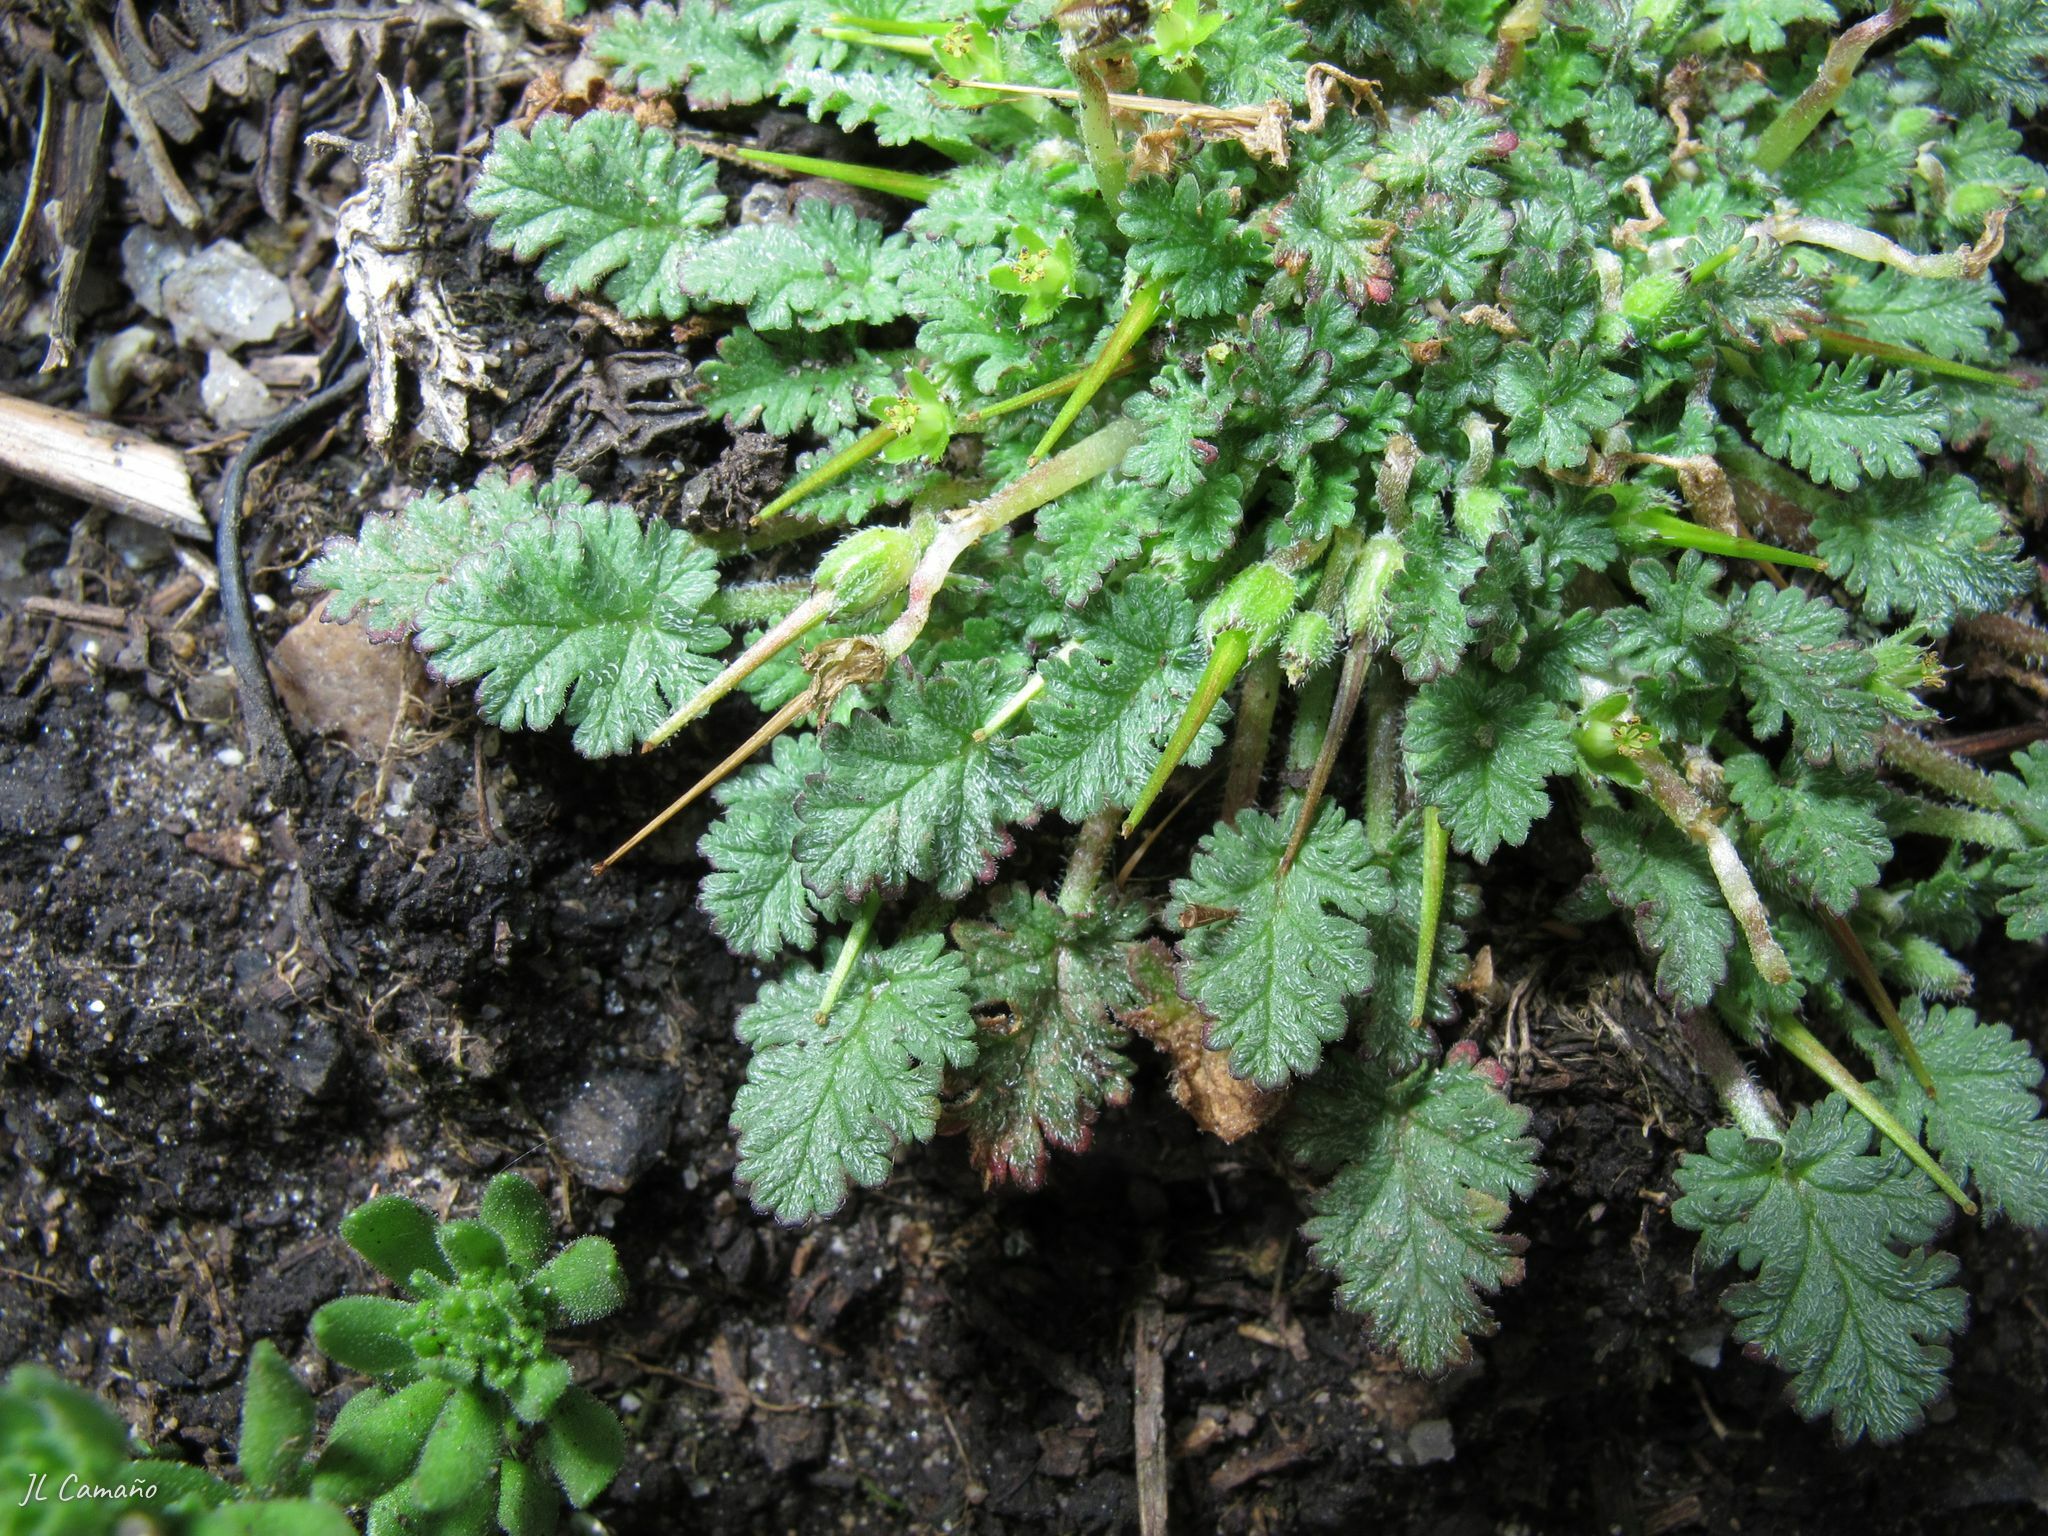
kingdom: Plantae
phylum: Tracheophyta
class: Magnoliopsida
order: Geraniales
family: Geraniaceae
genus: Erodium
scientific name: Erodium maritimum
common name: Sea stork's-bill
